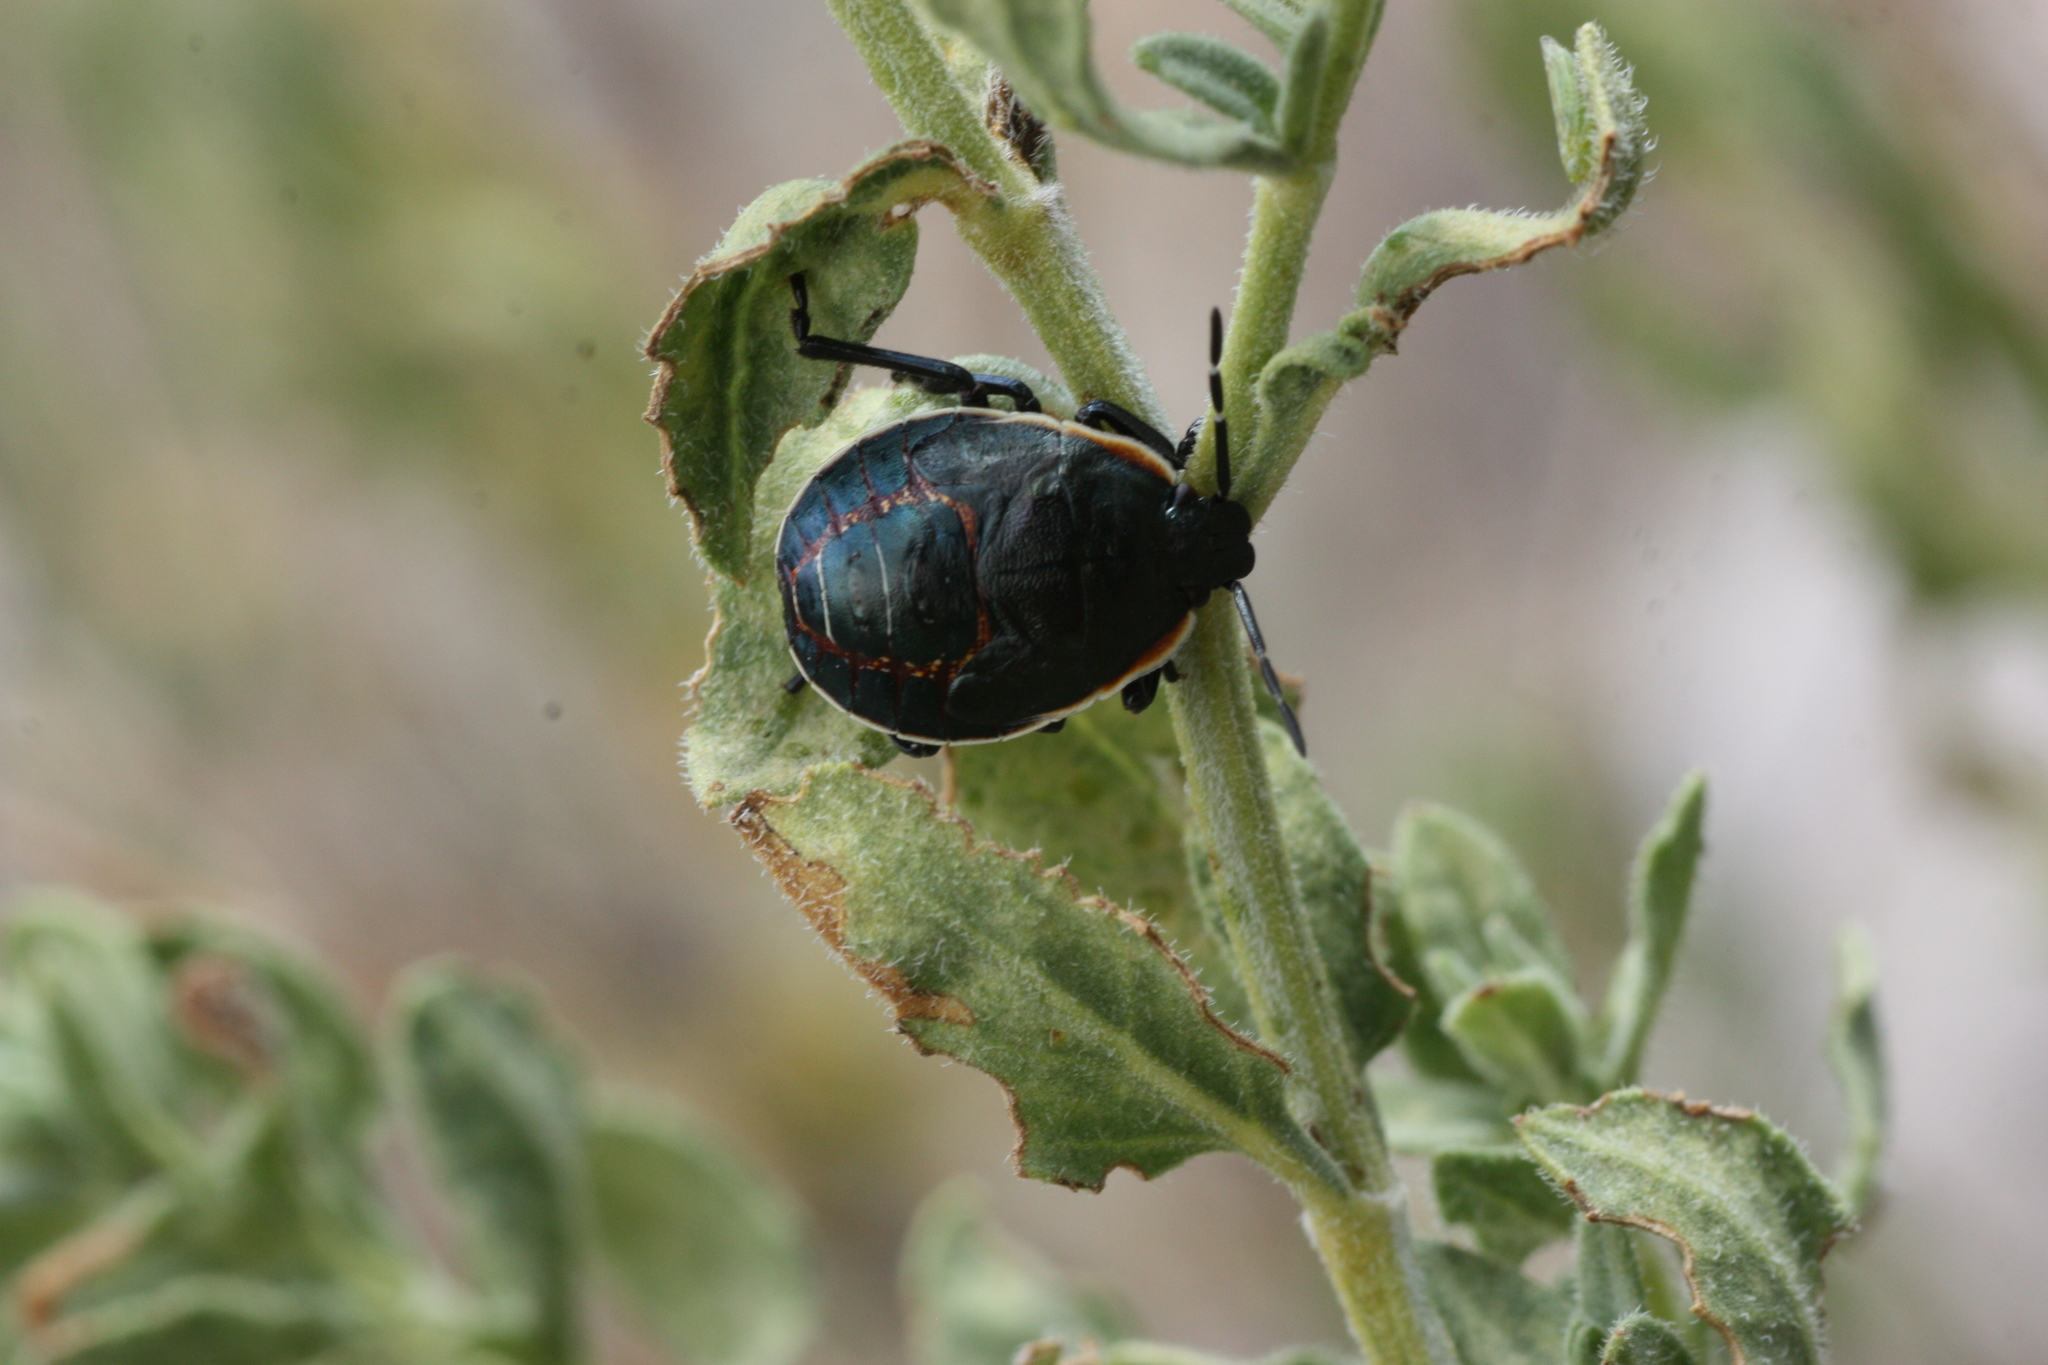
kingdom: Animalia
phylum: Arthropoda
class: Insecta
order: Hemiptera
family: Pentatomidae
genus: Apateticus
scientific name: Apateticus marginiventris
